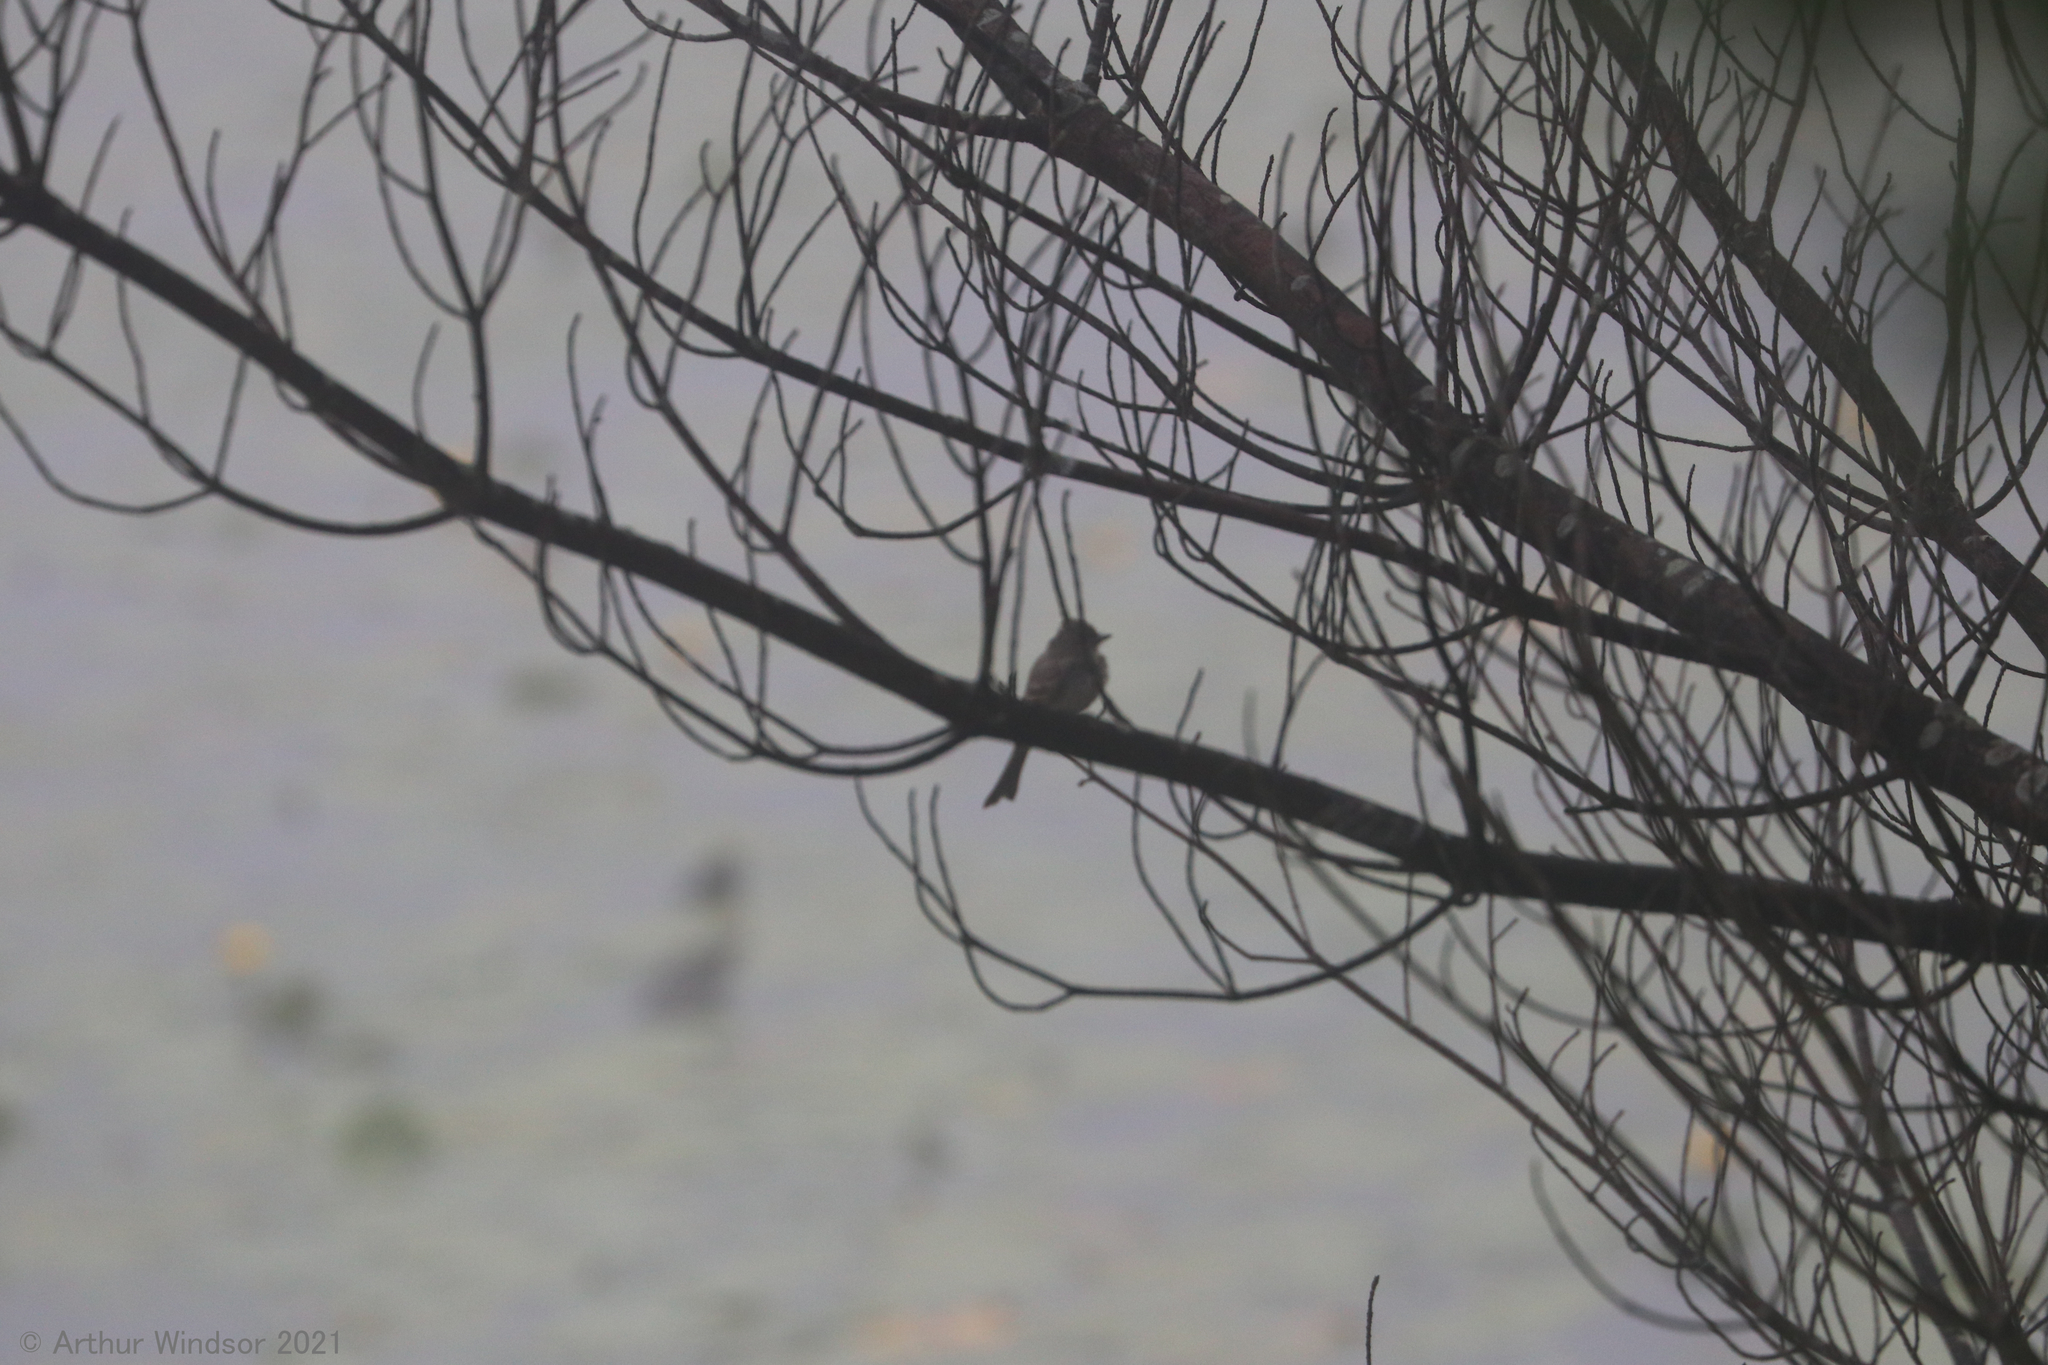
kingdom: Animalia
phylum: Chordata
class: Aves
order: Passeriformes
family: Tyrannidae
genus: Sayornis
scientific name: Sayornis phoebe
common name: Eastern phoebe
